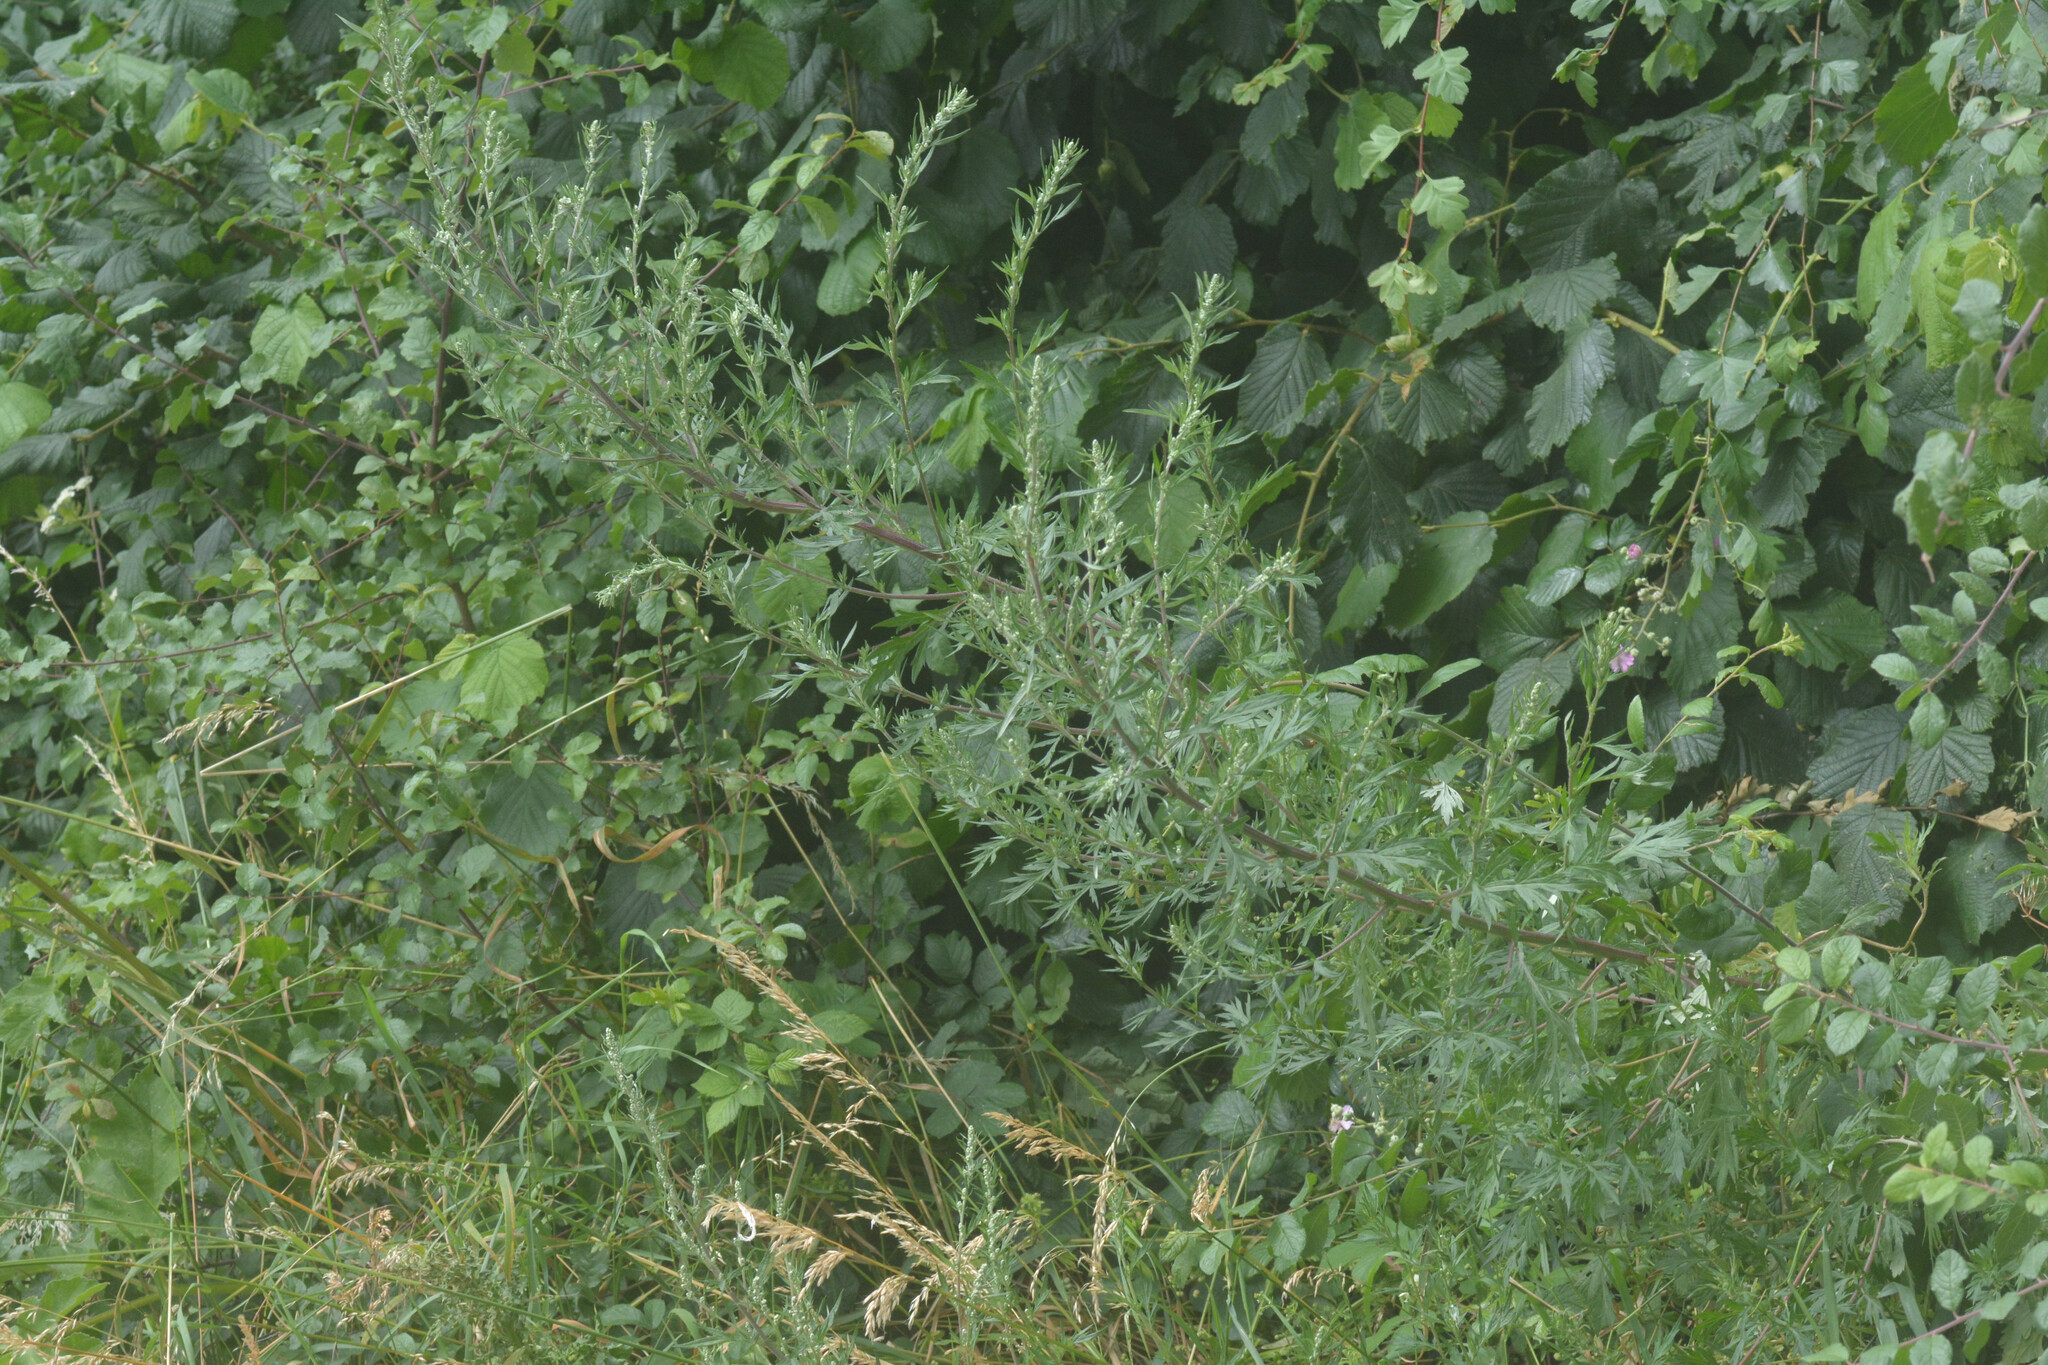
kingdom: Plantae
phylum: Tracheophyta
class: Magnoliopsida
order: Asterales
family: Asteraceae
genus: Artemisia
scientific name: Artemisia vulgaris
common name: Mugwort
